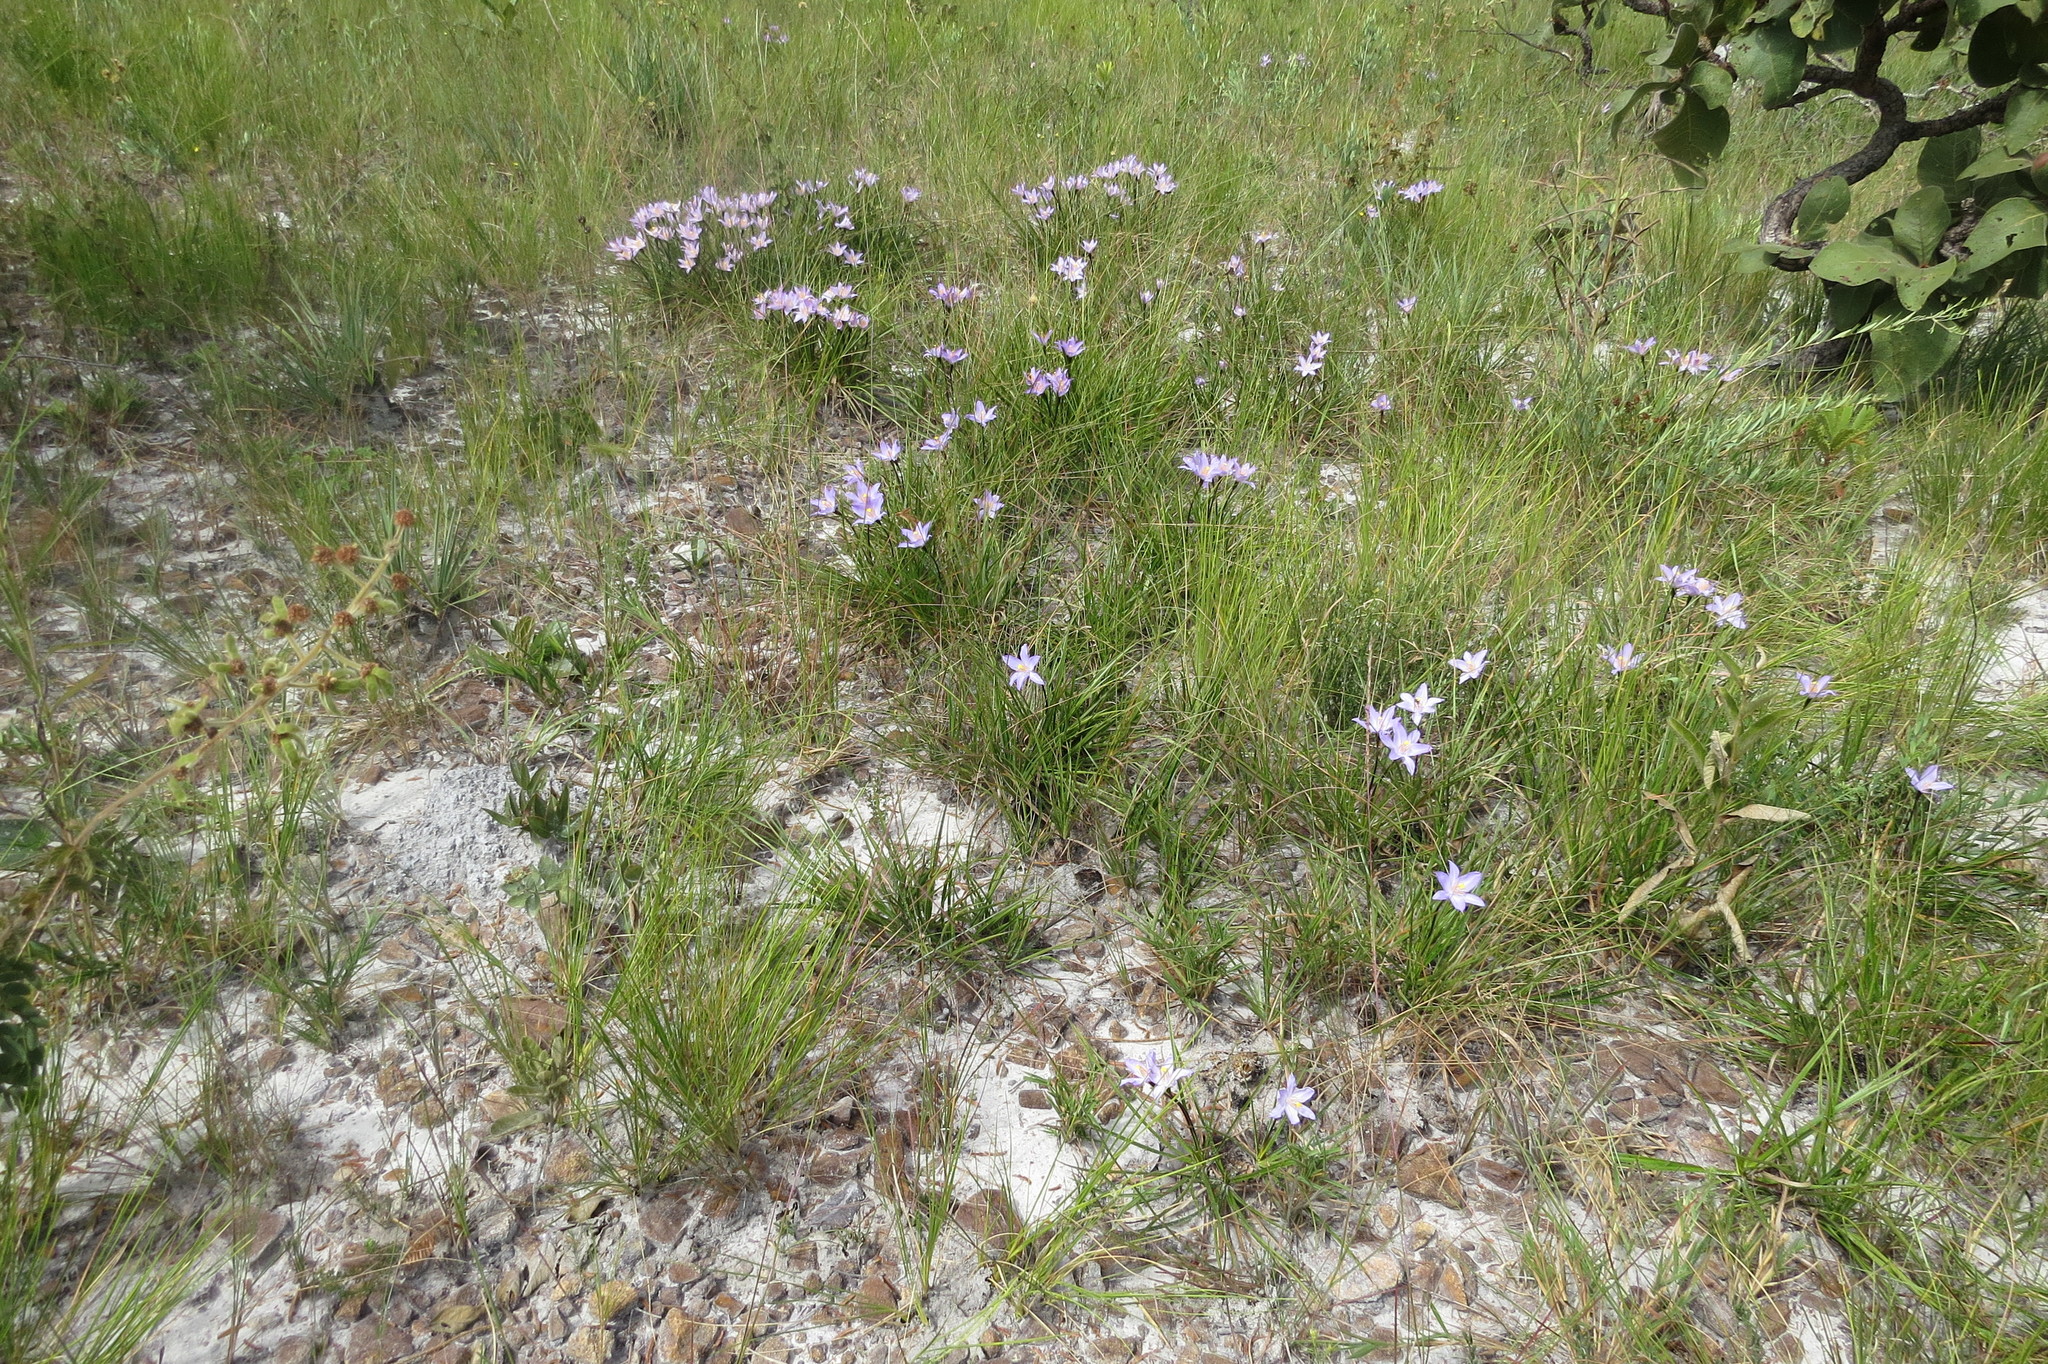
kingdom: Plantae
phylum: Tracheophyta
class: Liliopsida
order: Pandanales
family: Velloziaceae
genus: Vellozia
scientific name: Vellozia angustifolia
